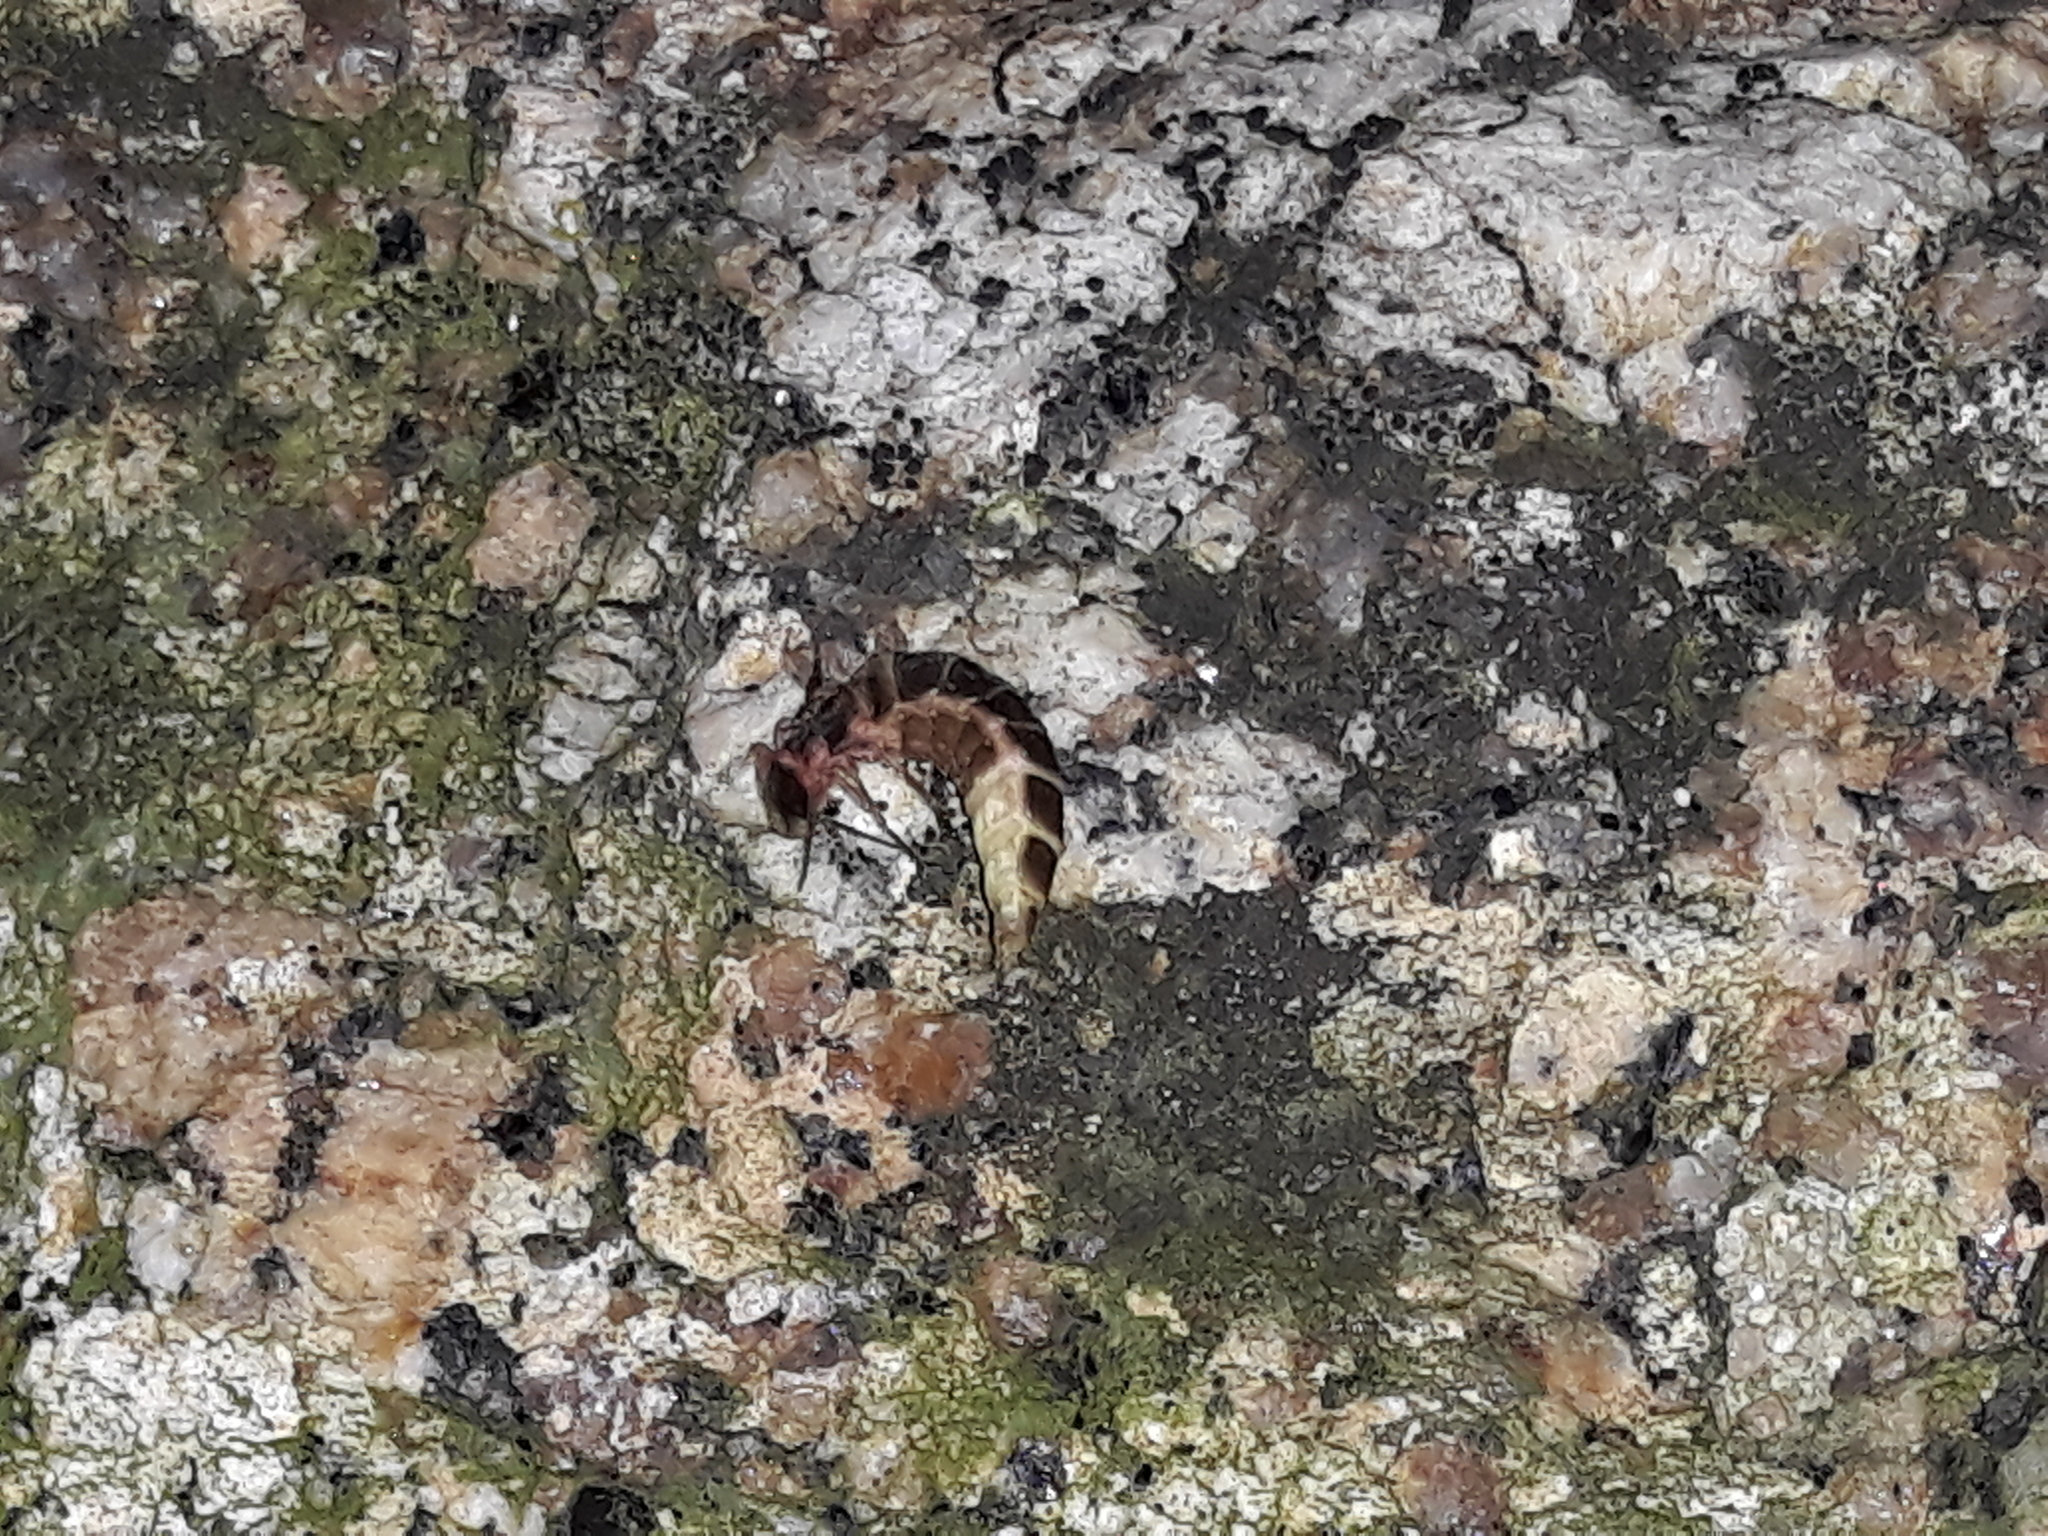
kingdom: Animalia
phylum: Arthropoda
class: Insecta
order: Coleoptera
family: Lampyridae
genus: Lampyris
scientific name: Lampyris noctiluca
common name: Glow-worm
